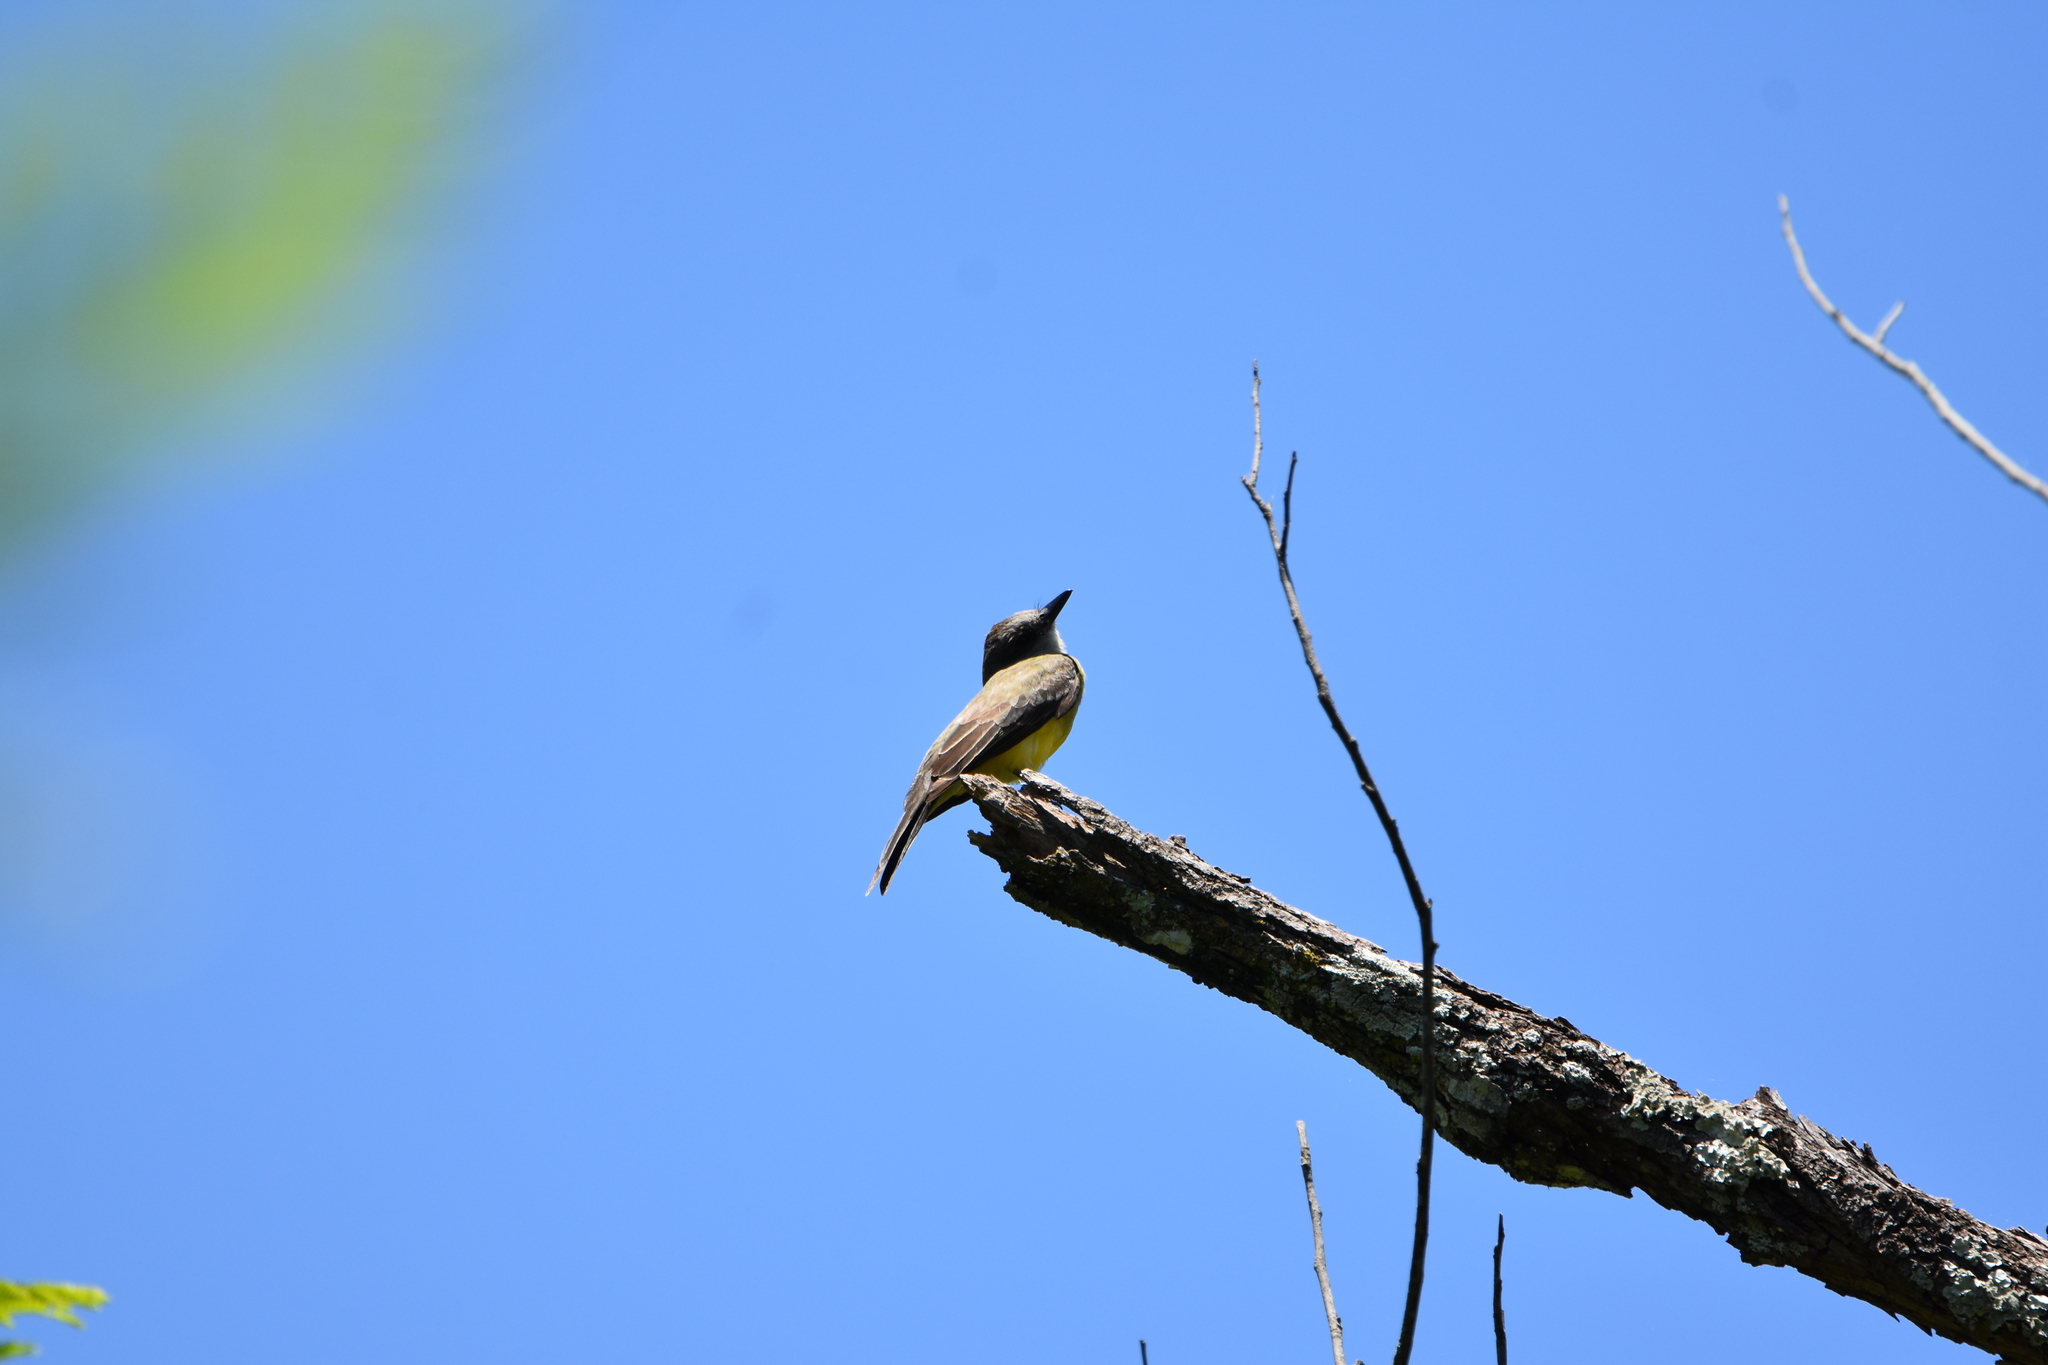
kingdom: Animalia
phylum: Chordata
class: Aves
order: Passeriformes
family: Tyrannidae
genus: Tyrannus
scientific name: Tyrannus melancholicus
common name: Tropical kingbird
